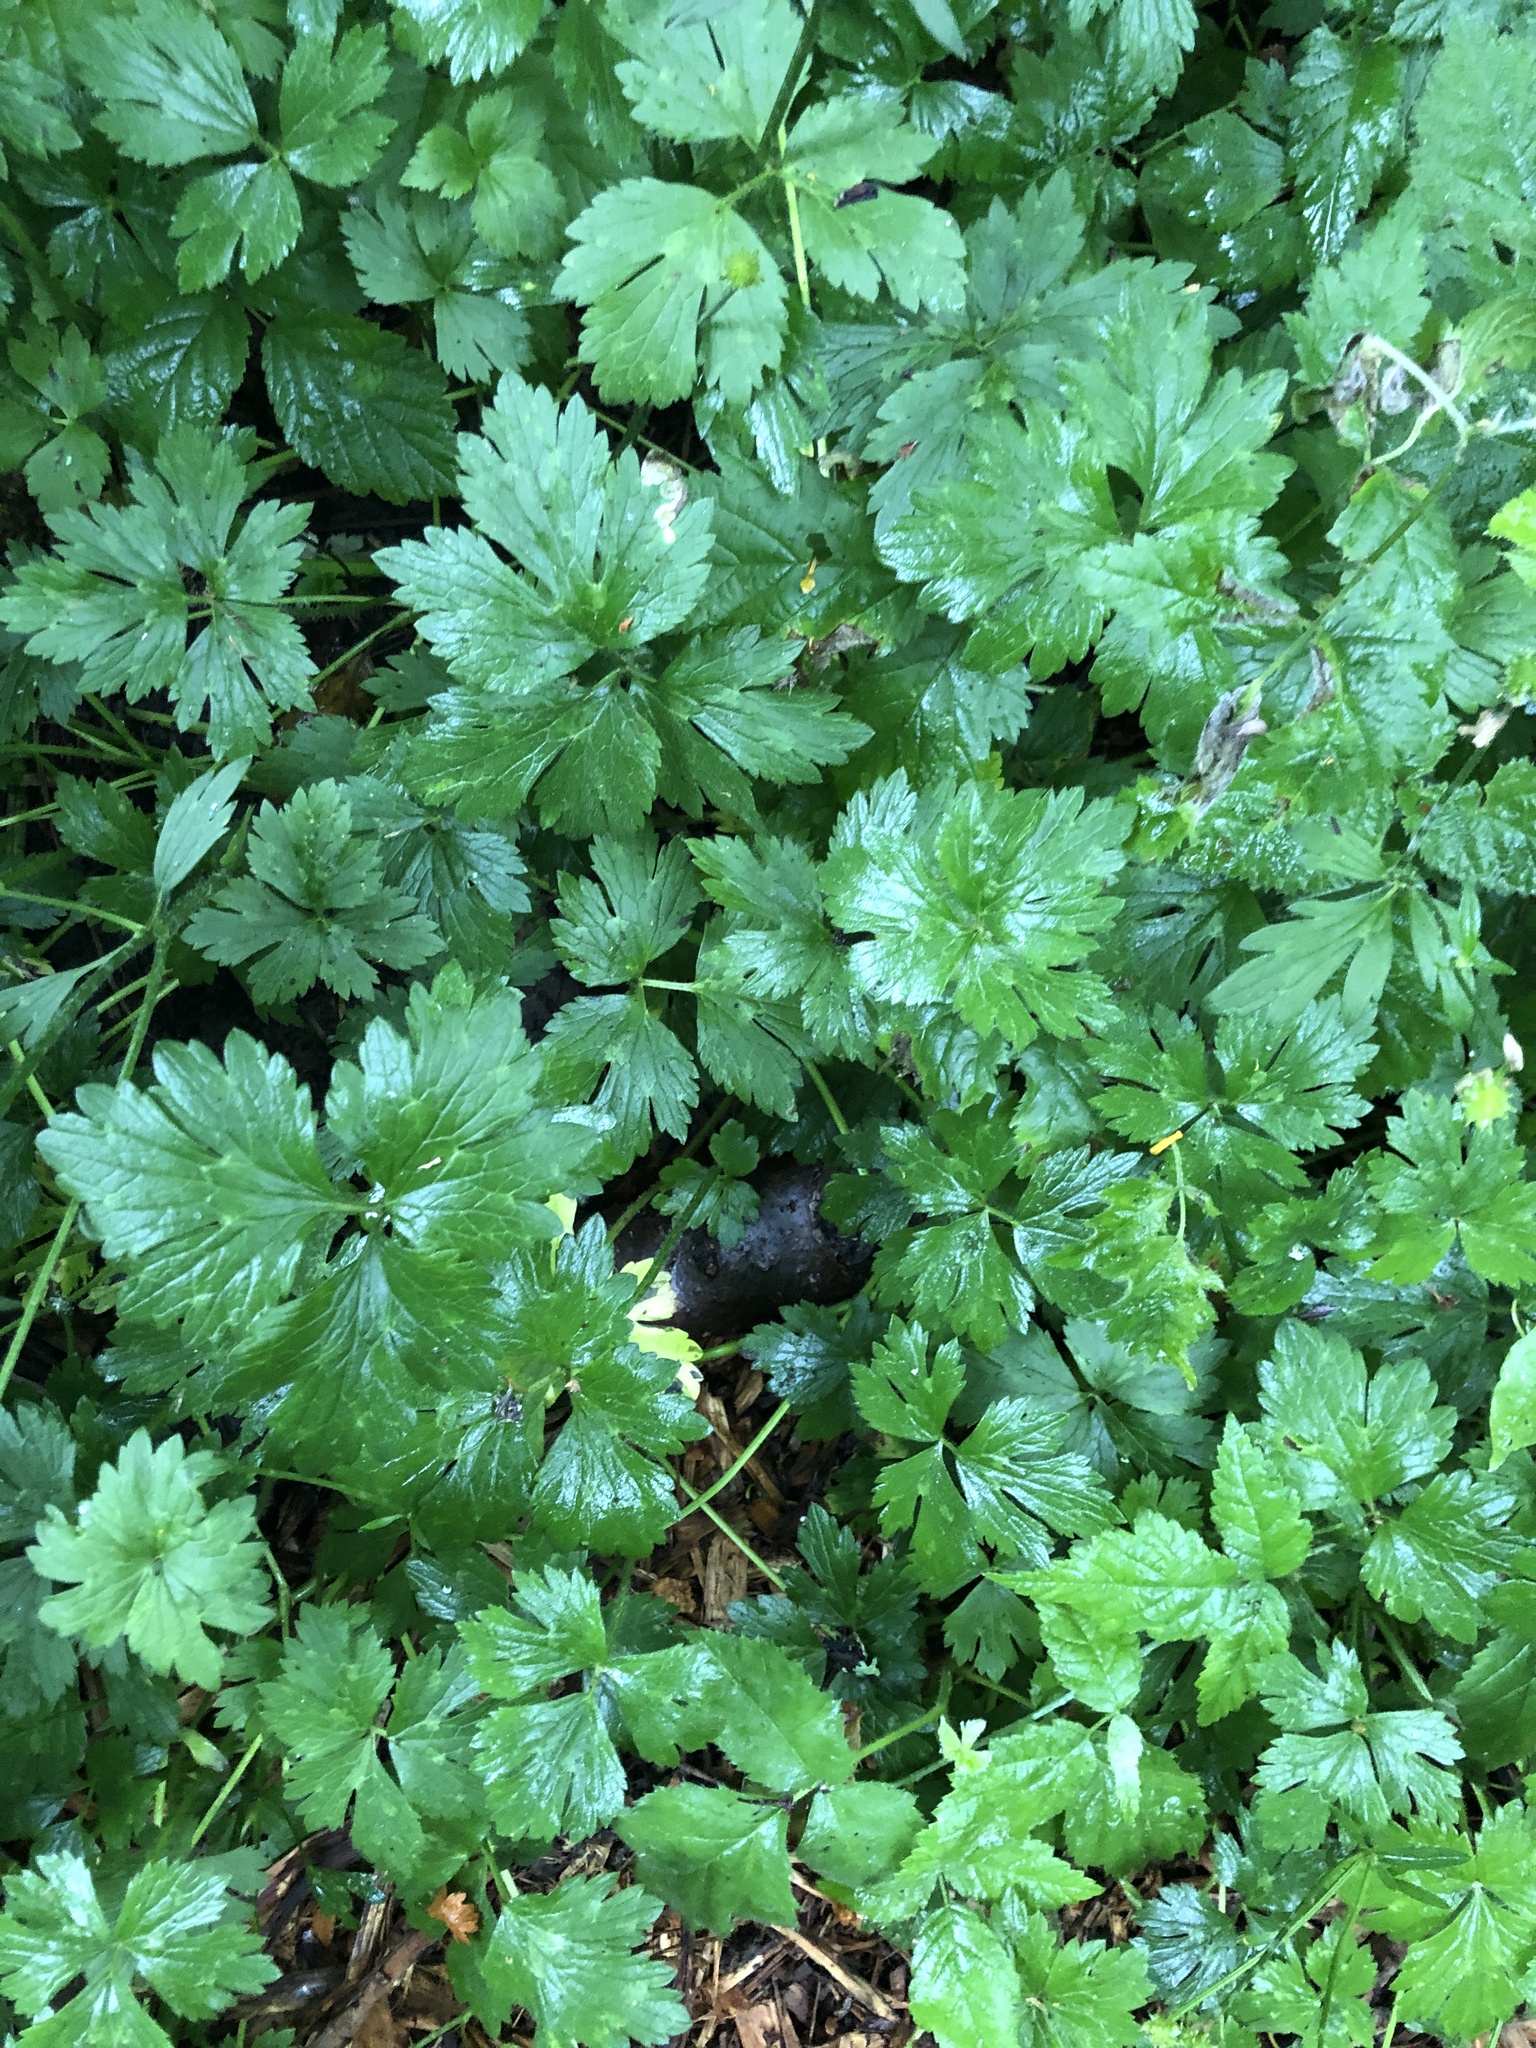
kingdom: Plantae
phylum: Tracheophyta
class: Magnoliopsida
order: Ranunculales
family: Ranunculaceae
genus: Ranunculus
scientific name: Ranunculus repens
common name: Creeping buttercup
